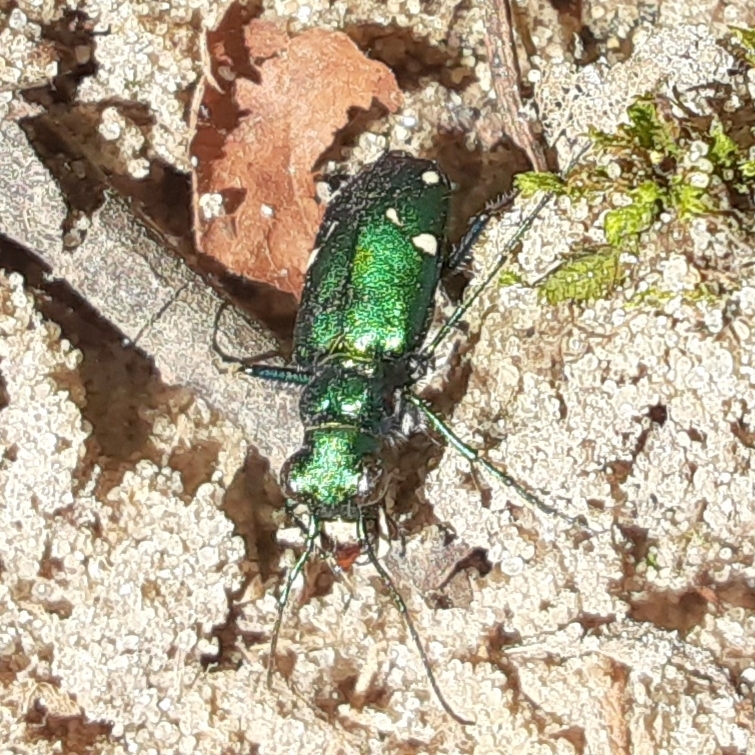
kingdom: Animalia
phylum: Arthropoda
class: Insecta
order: Coleoptera
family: Carabidae
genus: Cicindela
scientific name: Cicindela sexguttata
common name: Six-spotted tiger beetle
